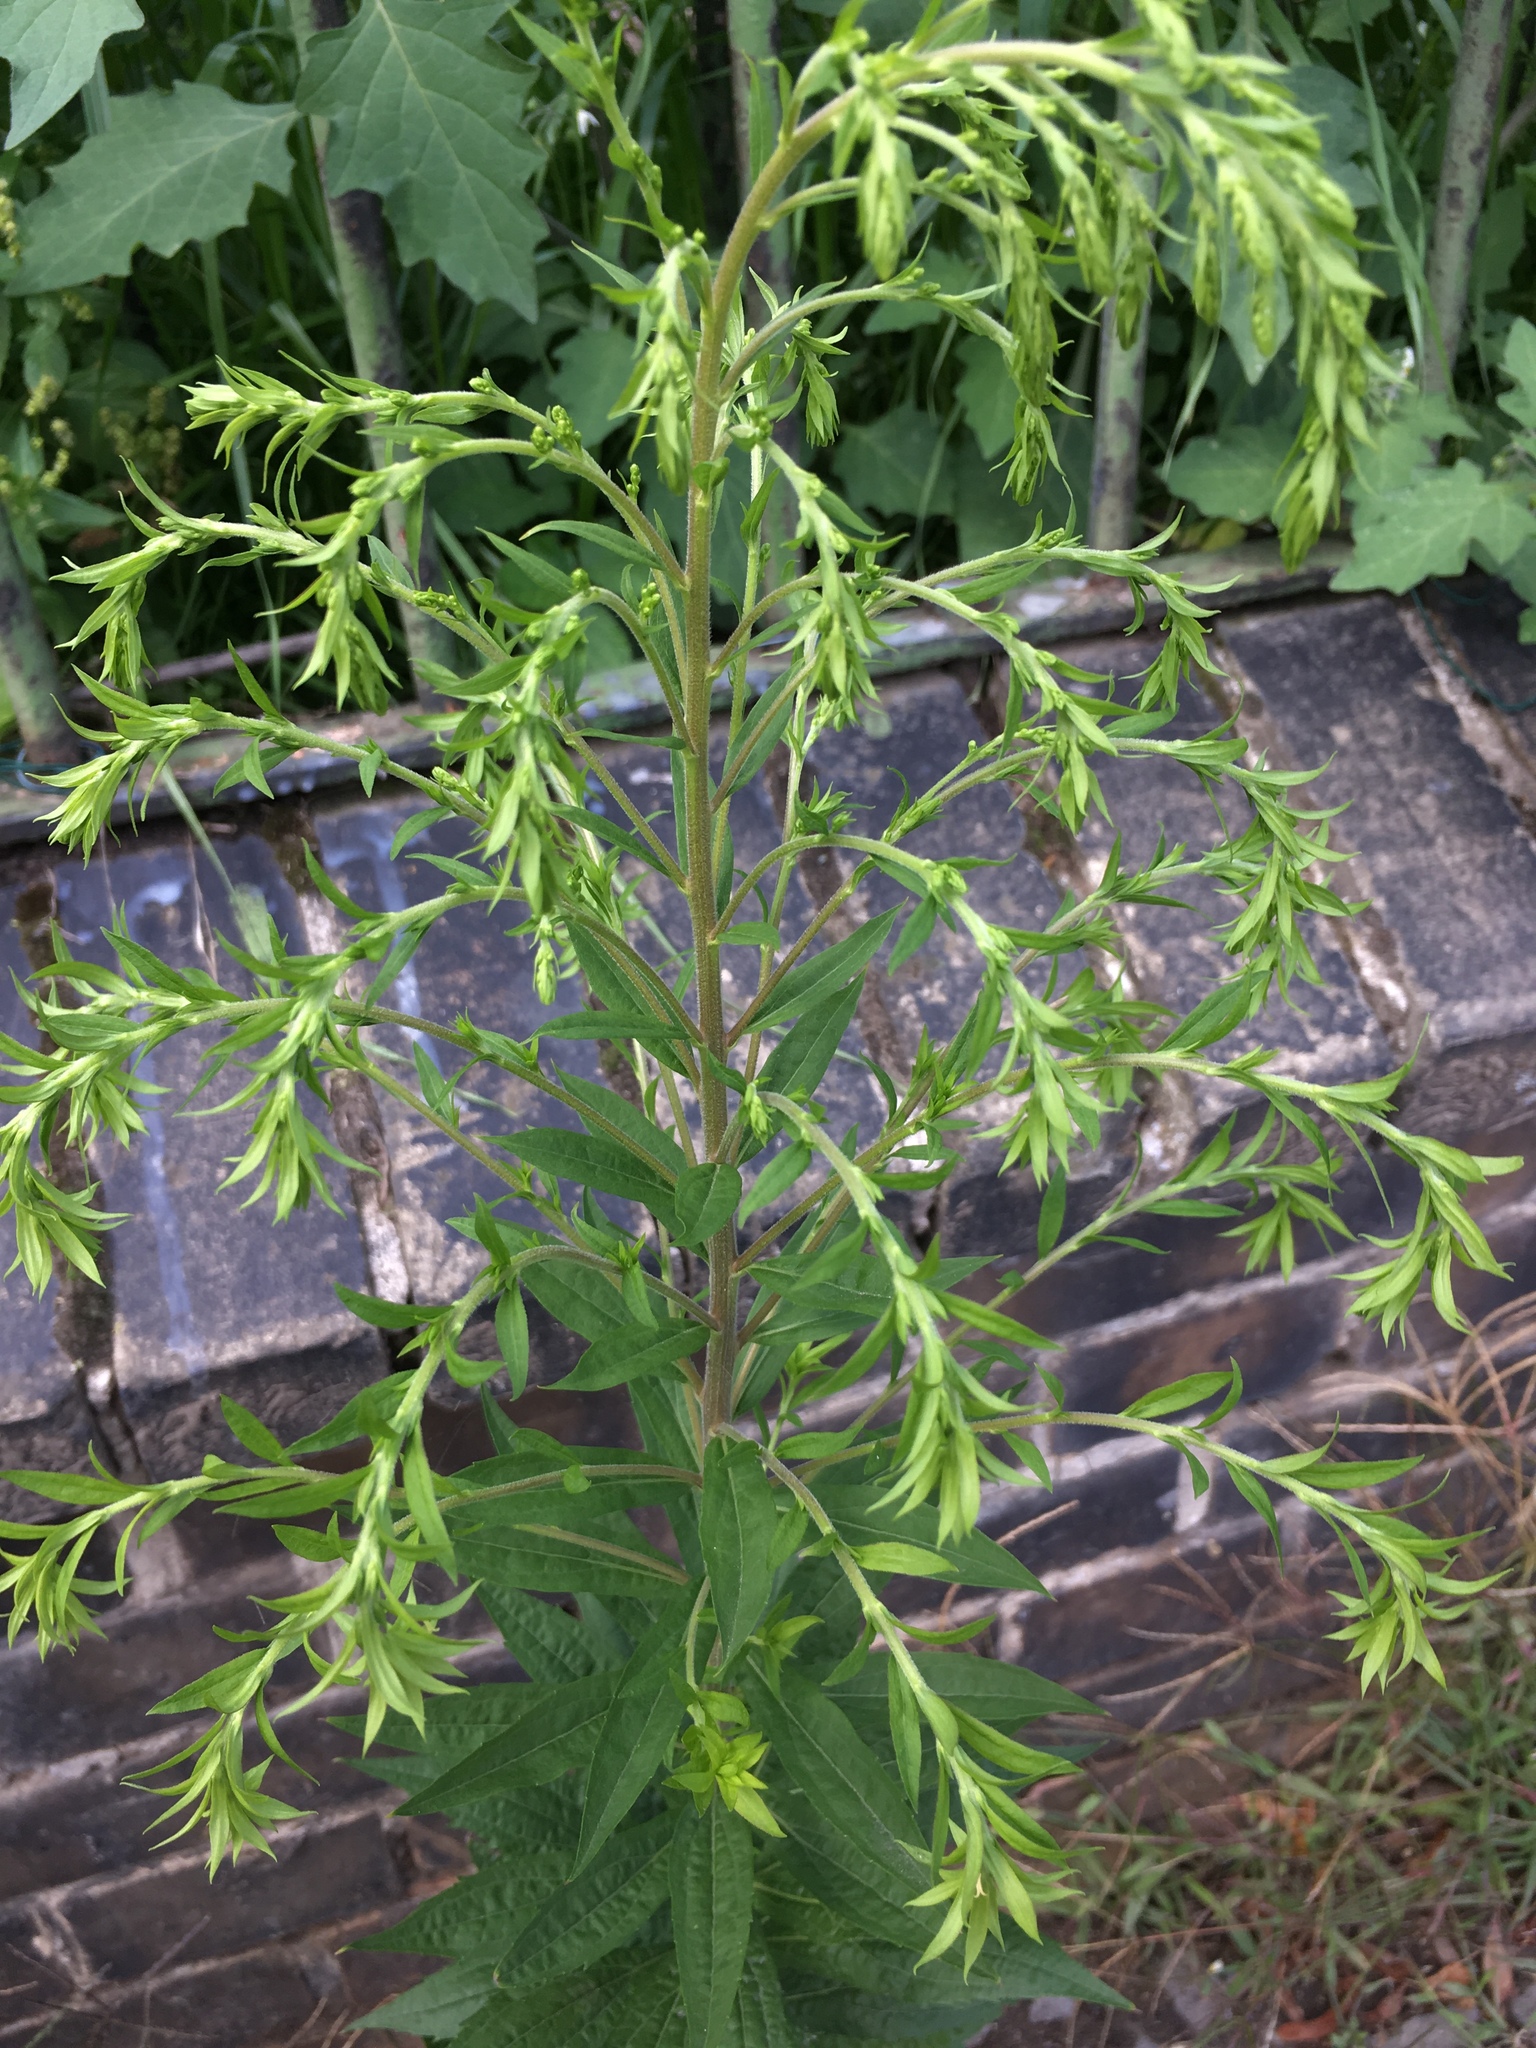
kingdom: Plantae
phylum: Tracheophyta
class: Magnoliopsida
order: Asterales
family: Asteraceae
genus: Solidago
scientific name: Solidago canadensis
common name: Canada goldenrod
